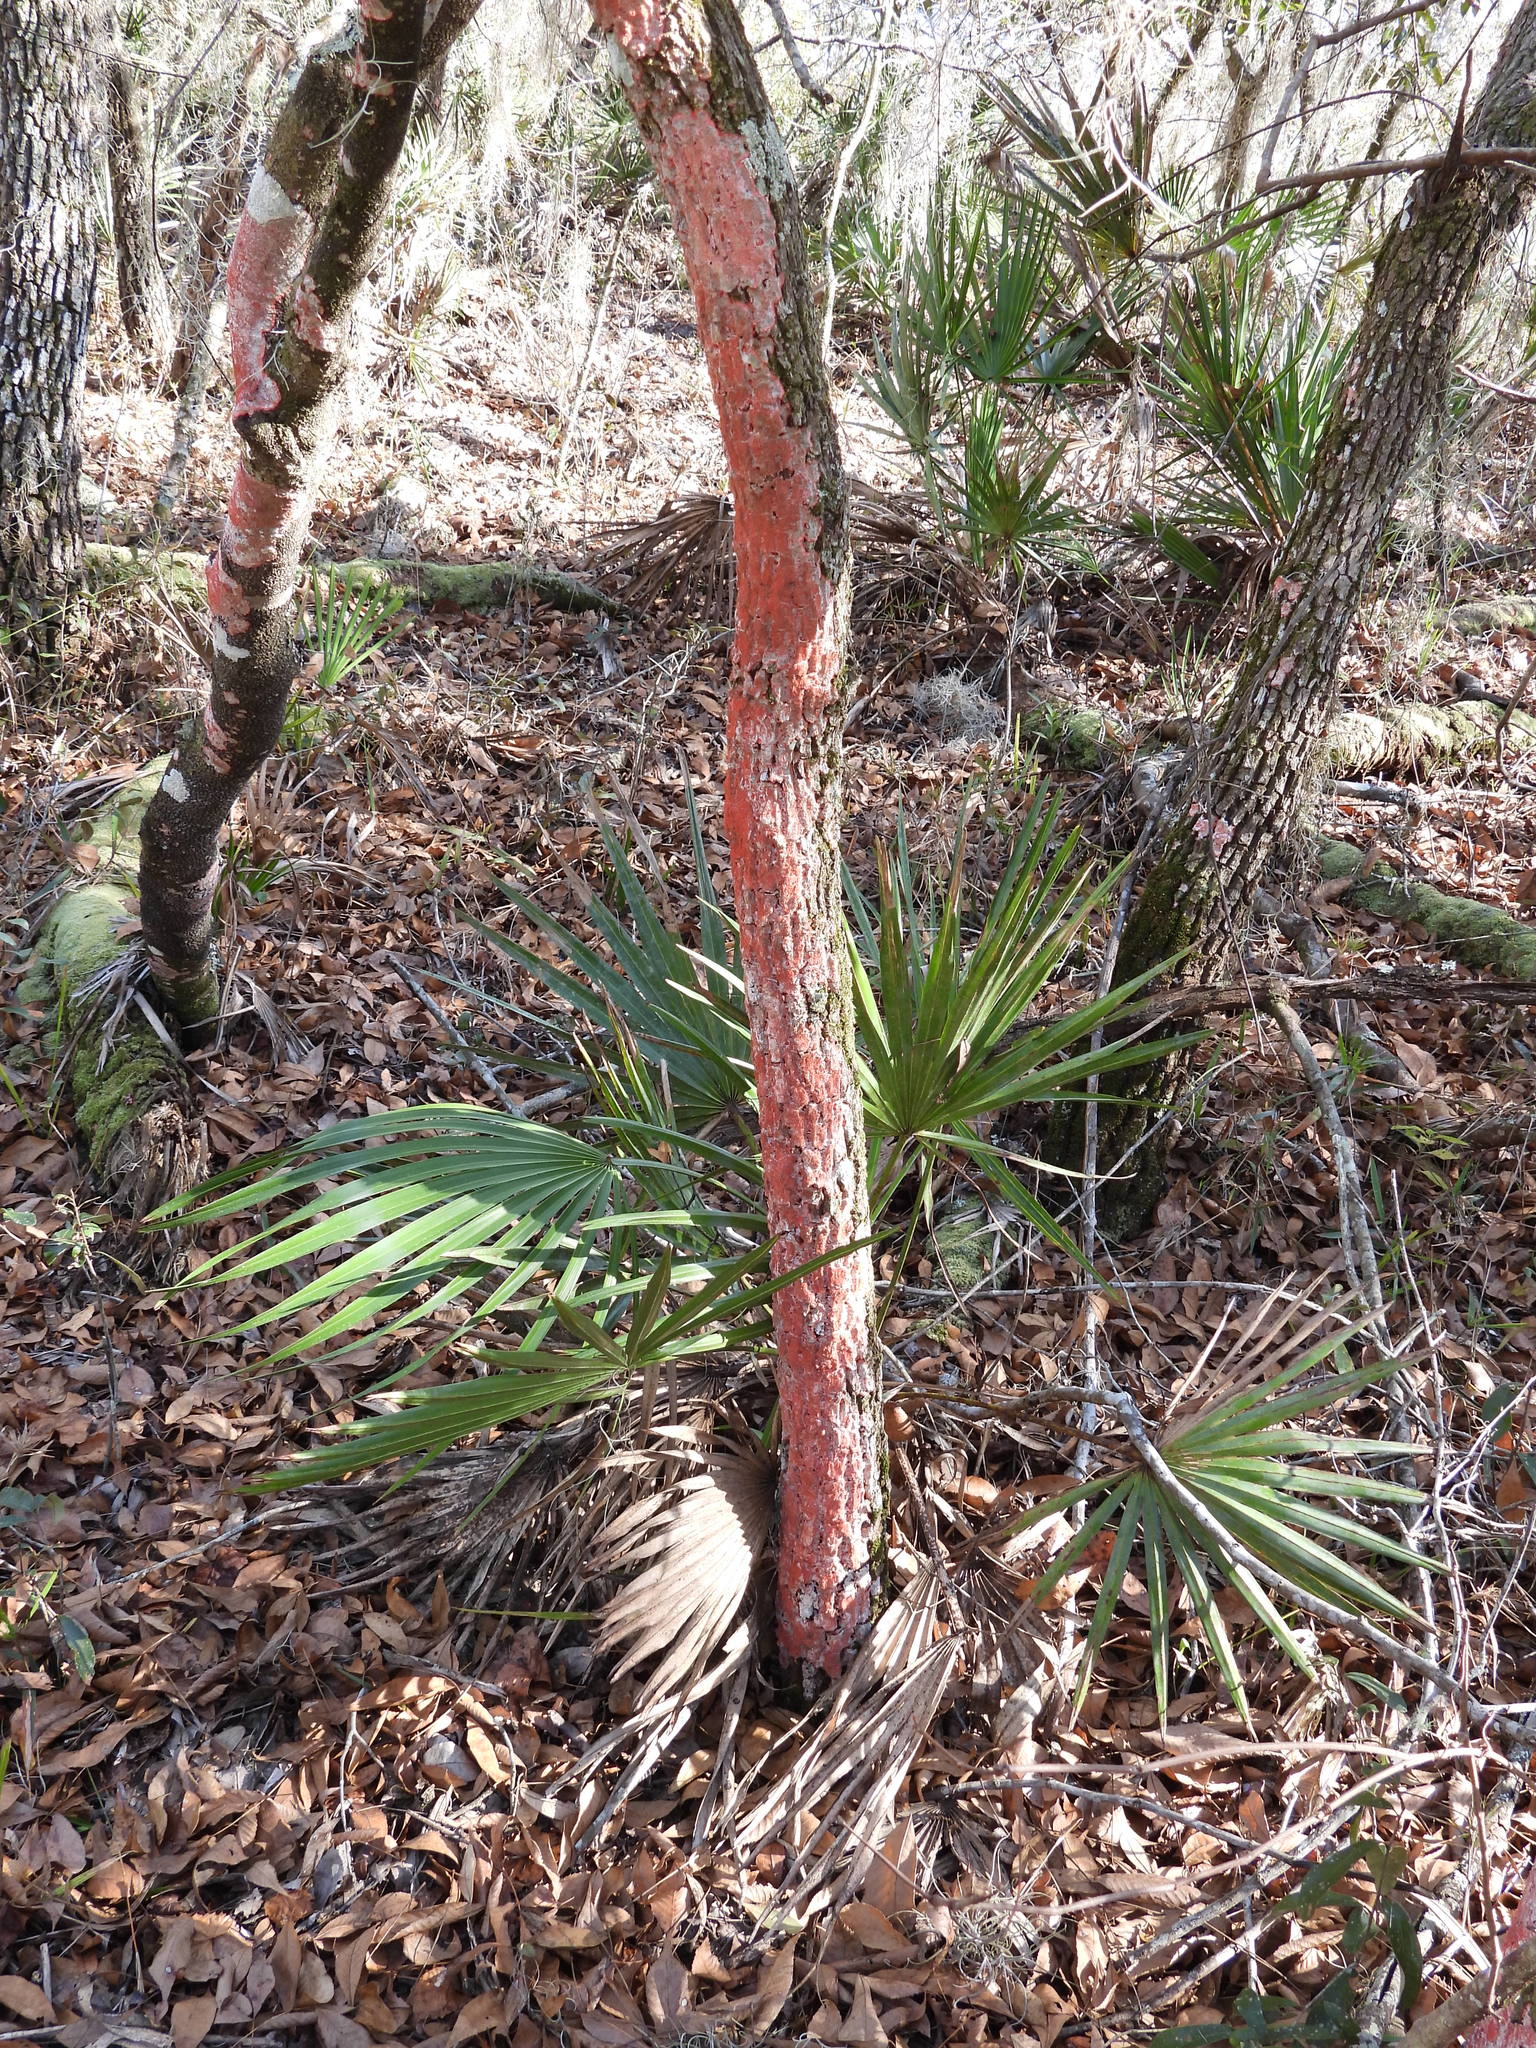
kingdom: Fungi
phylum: Ascomycota
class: Arthoniomycetes
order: Arthoniales
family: Arthoniaceae
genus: Herpothallon
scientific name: Herpothallon rubrocinctum
